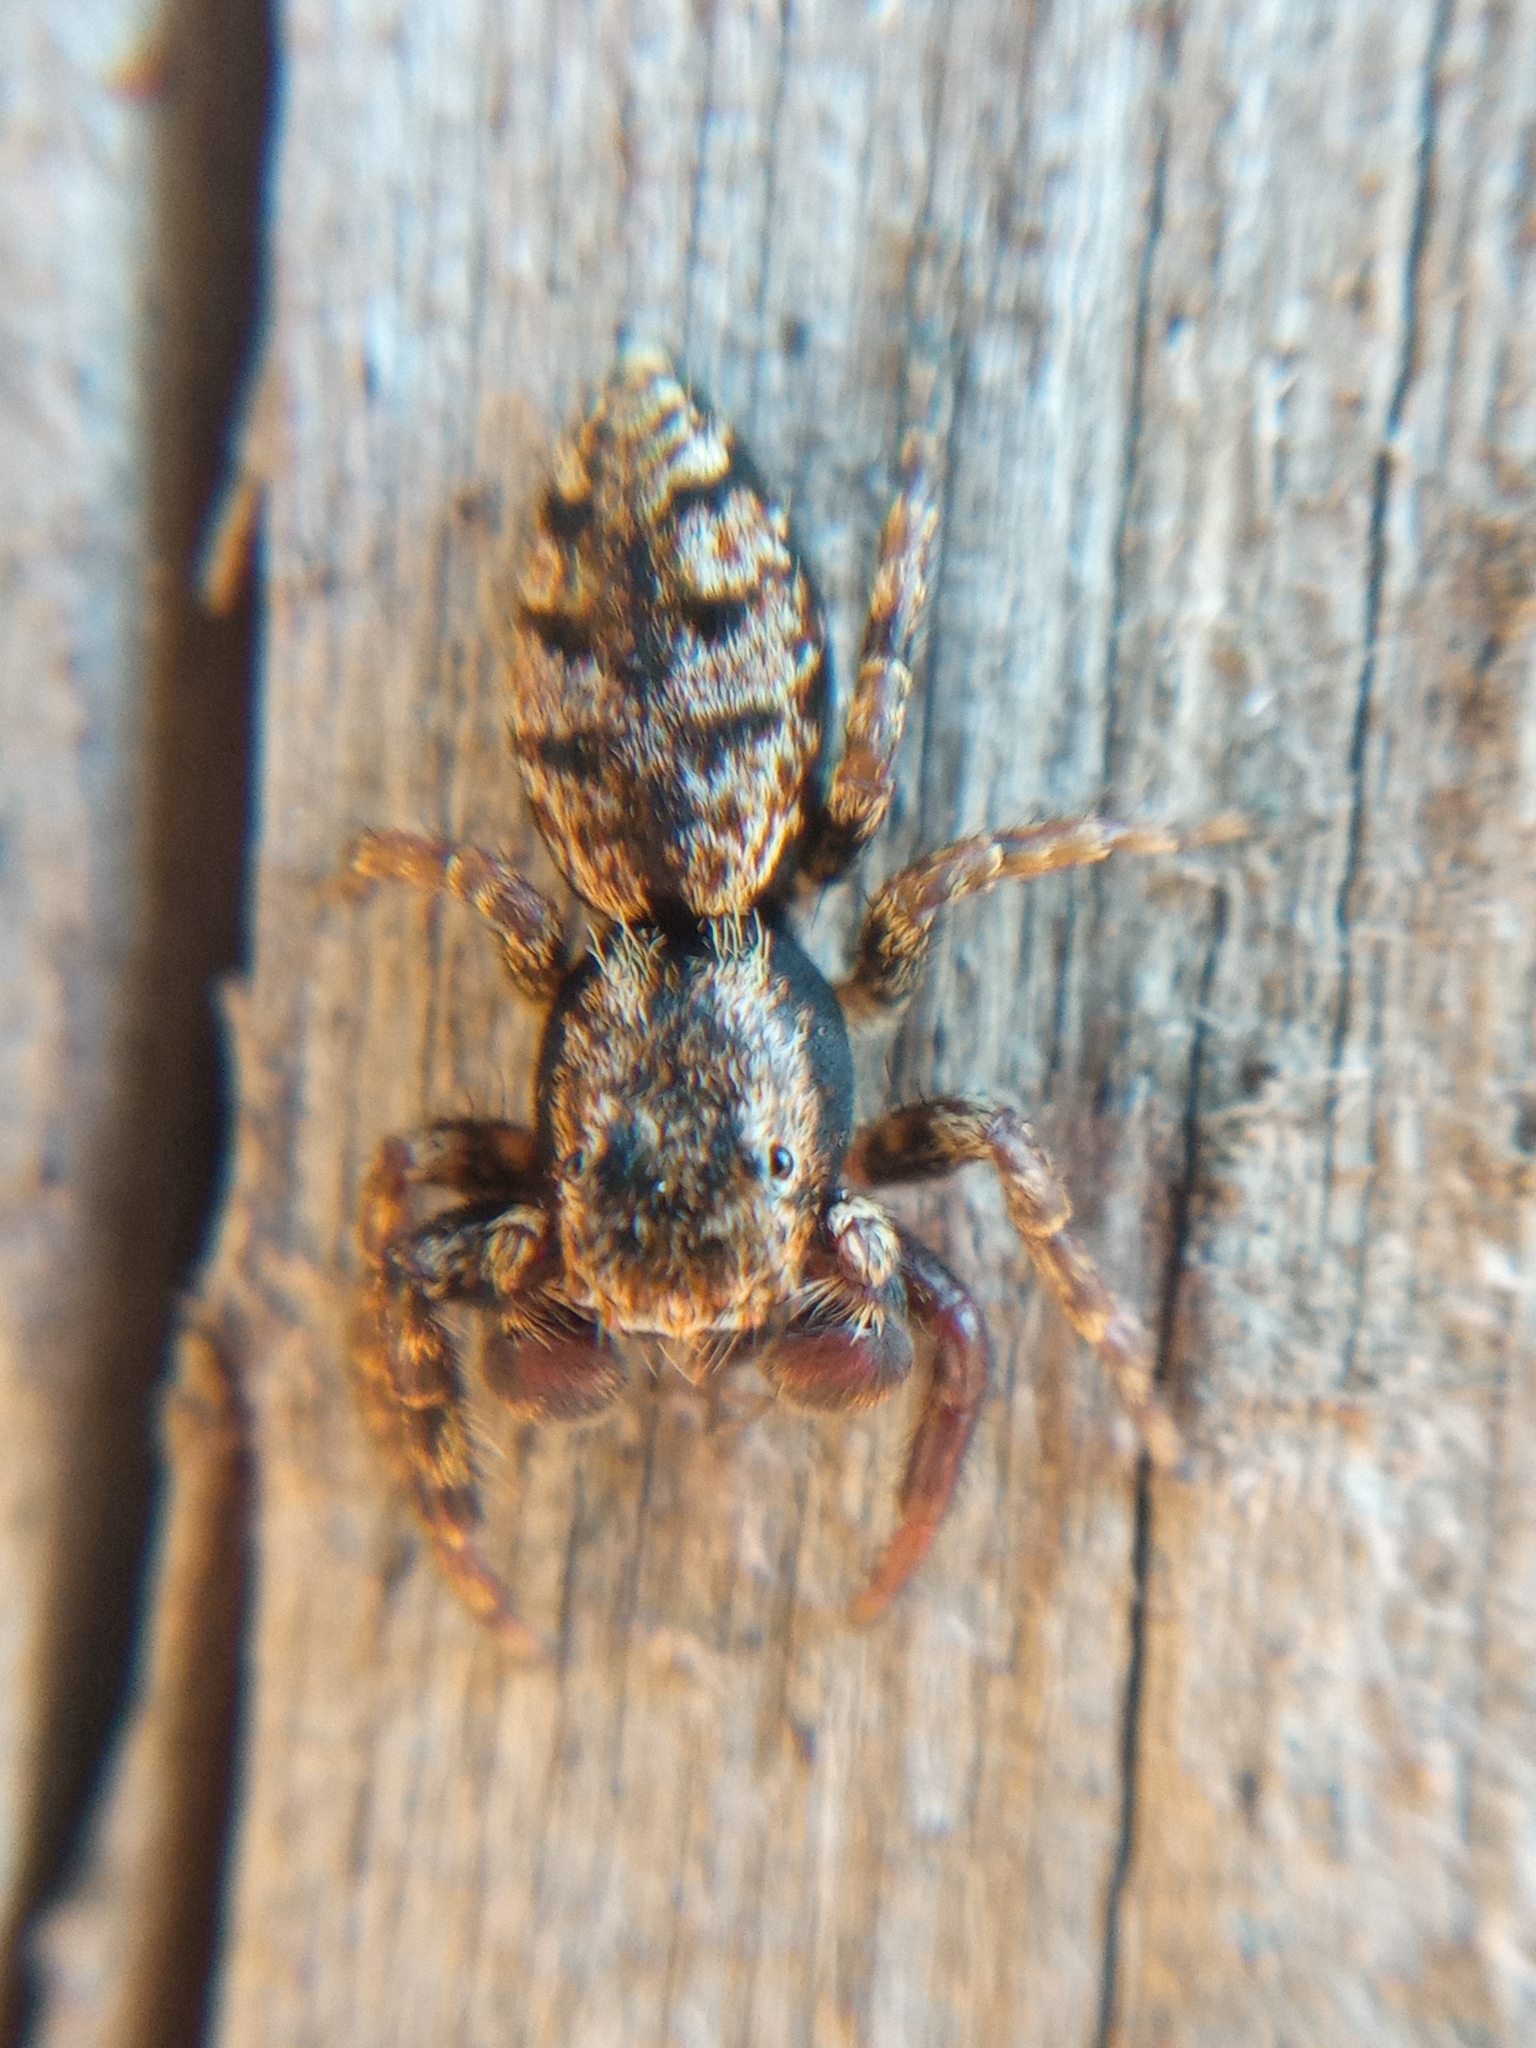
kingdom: Animalia
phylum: Arthropoda
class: Arachnida
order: Araneae
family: Salticidae
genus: Marpissa
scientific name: Marpissa muscosa
